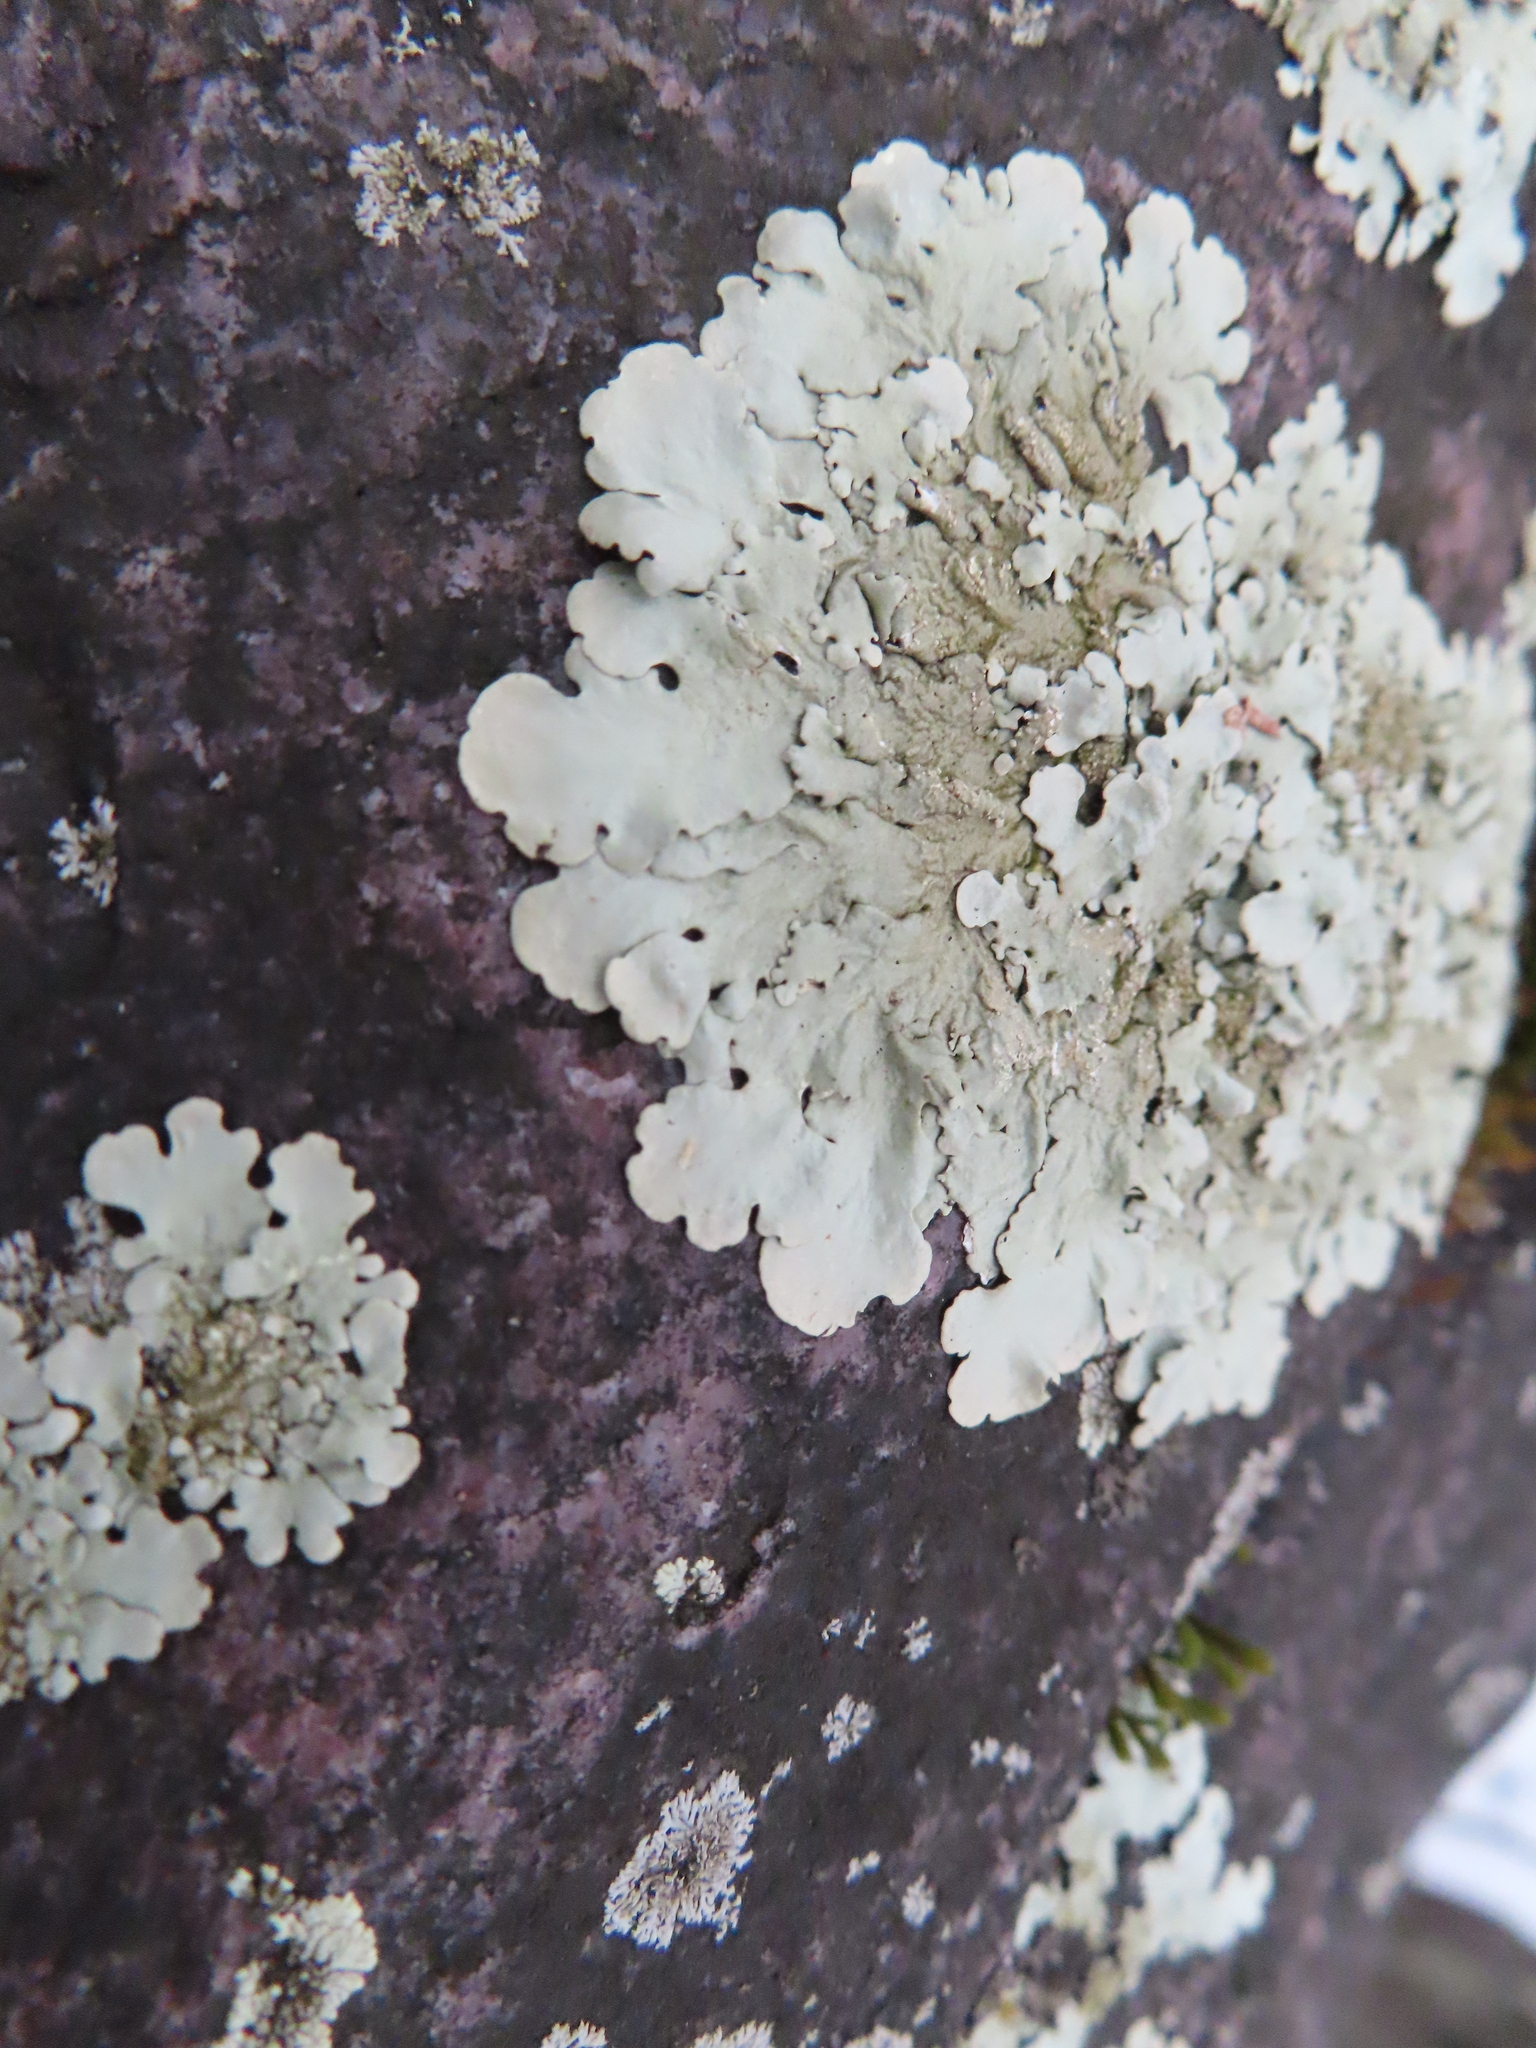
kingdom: Fungi
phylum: Ascomycota
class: Lecanoromycetes
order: Lecanorales
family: Parmeliaceae
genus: Flavoparmelia
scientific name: Flavoparmelia baltimorensis
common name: Rock greenshield
